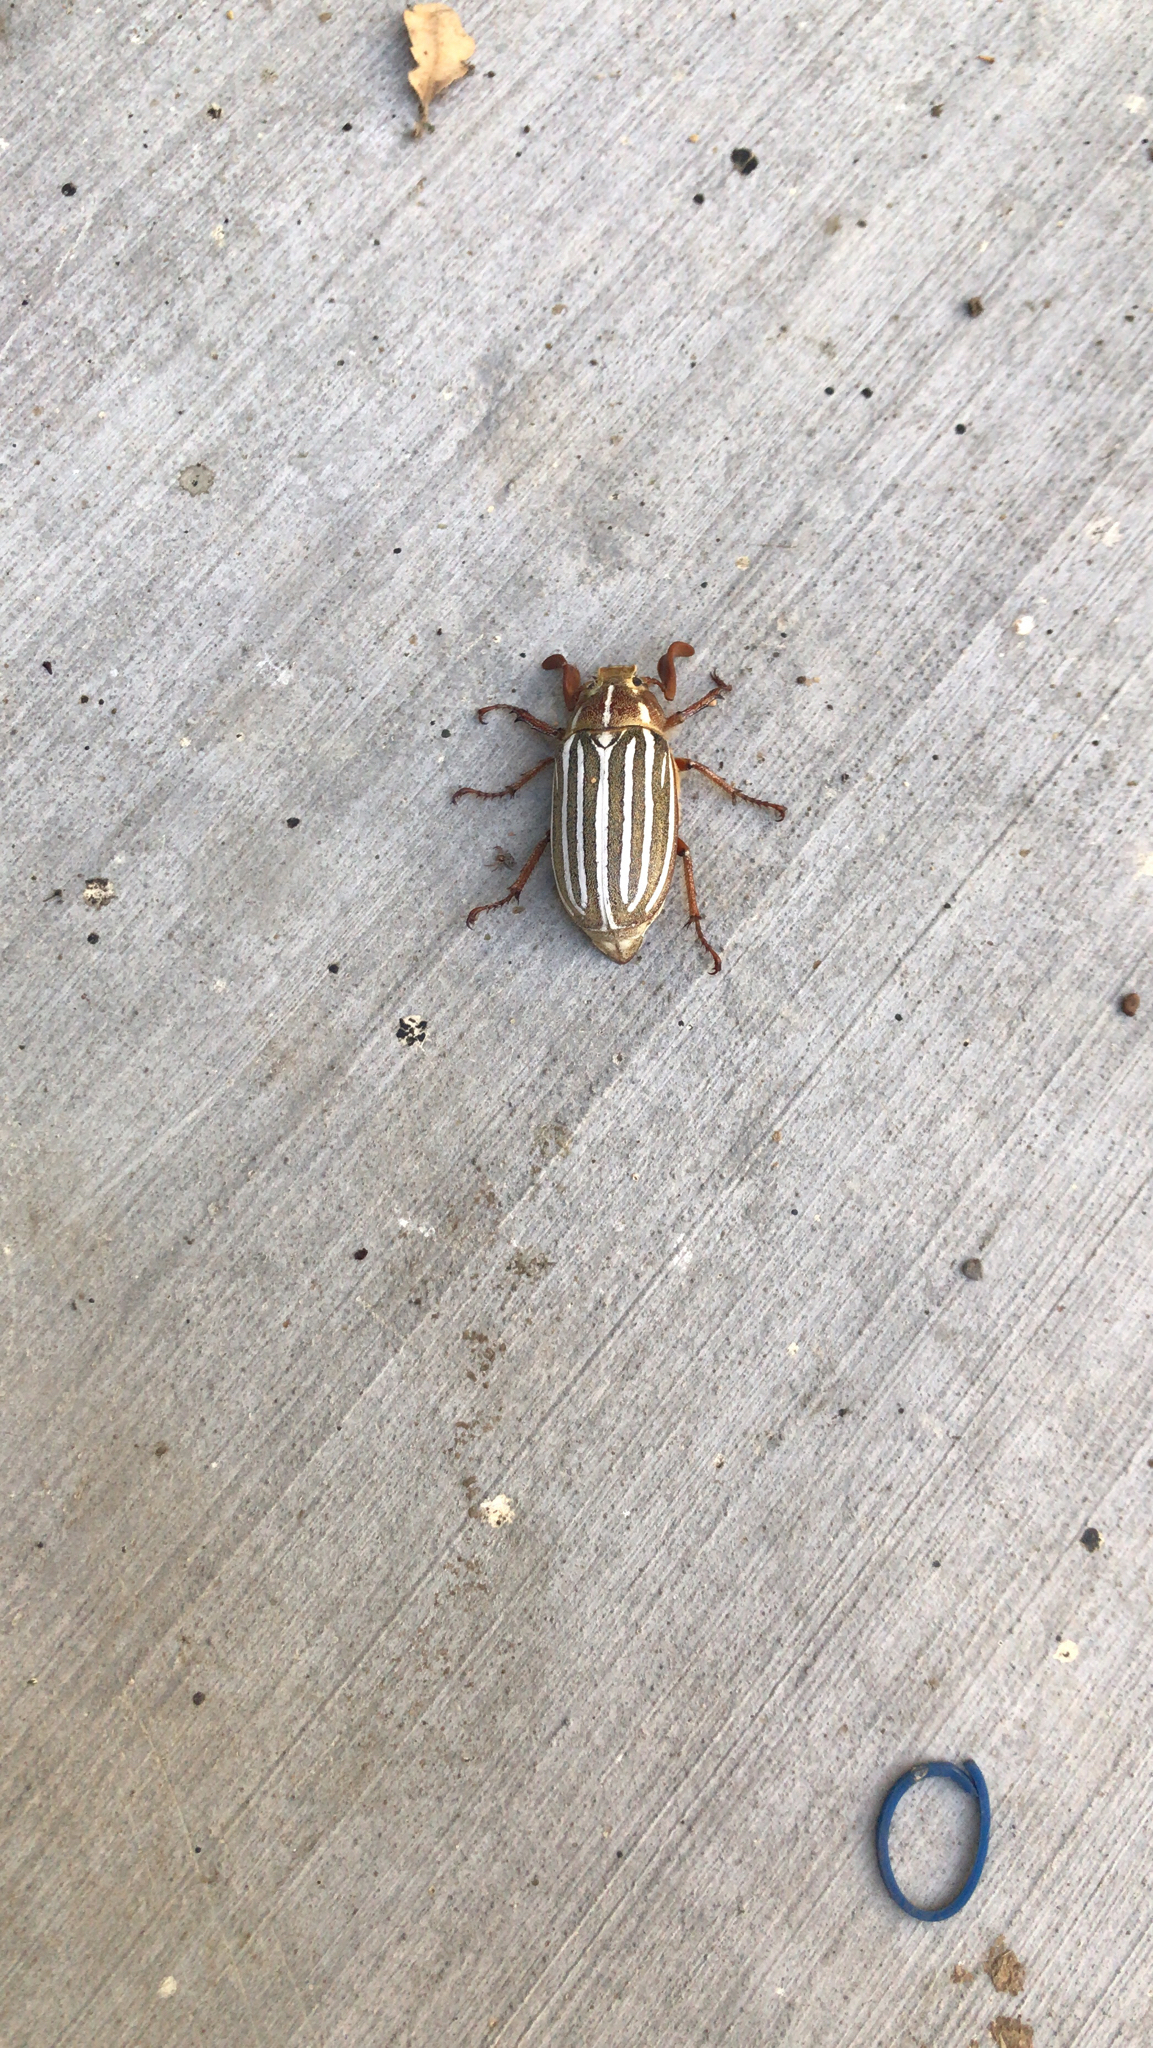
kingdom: Animalia
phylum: Arthropoda
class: Insecta
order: Coleoptera
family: Scarabaeidae
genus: Polyphylla
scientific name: Polyphylla decemlineata
